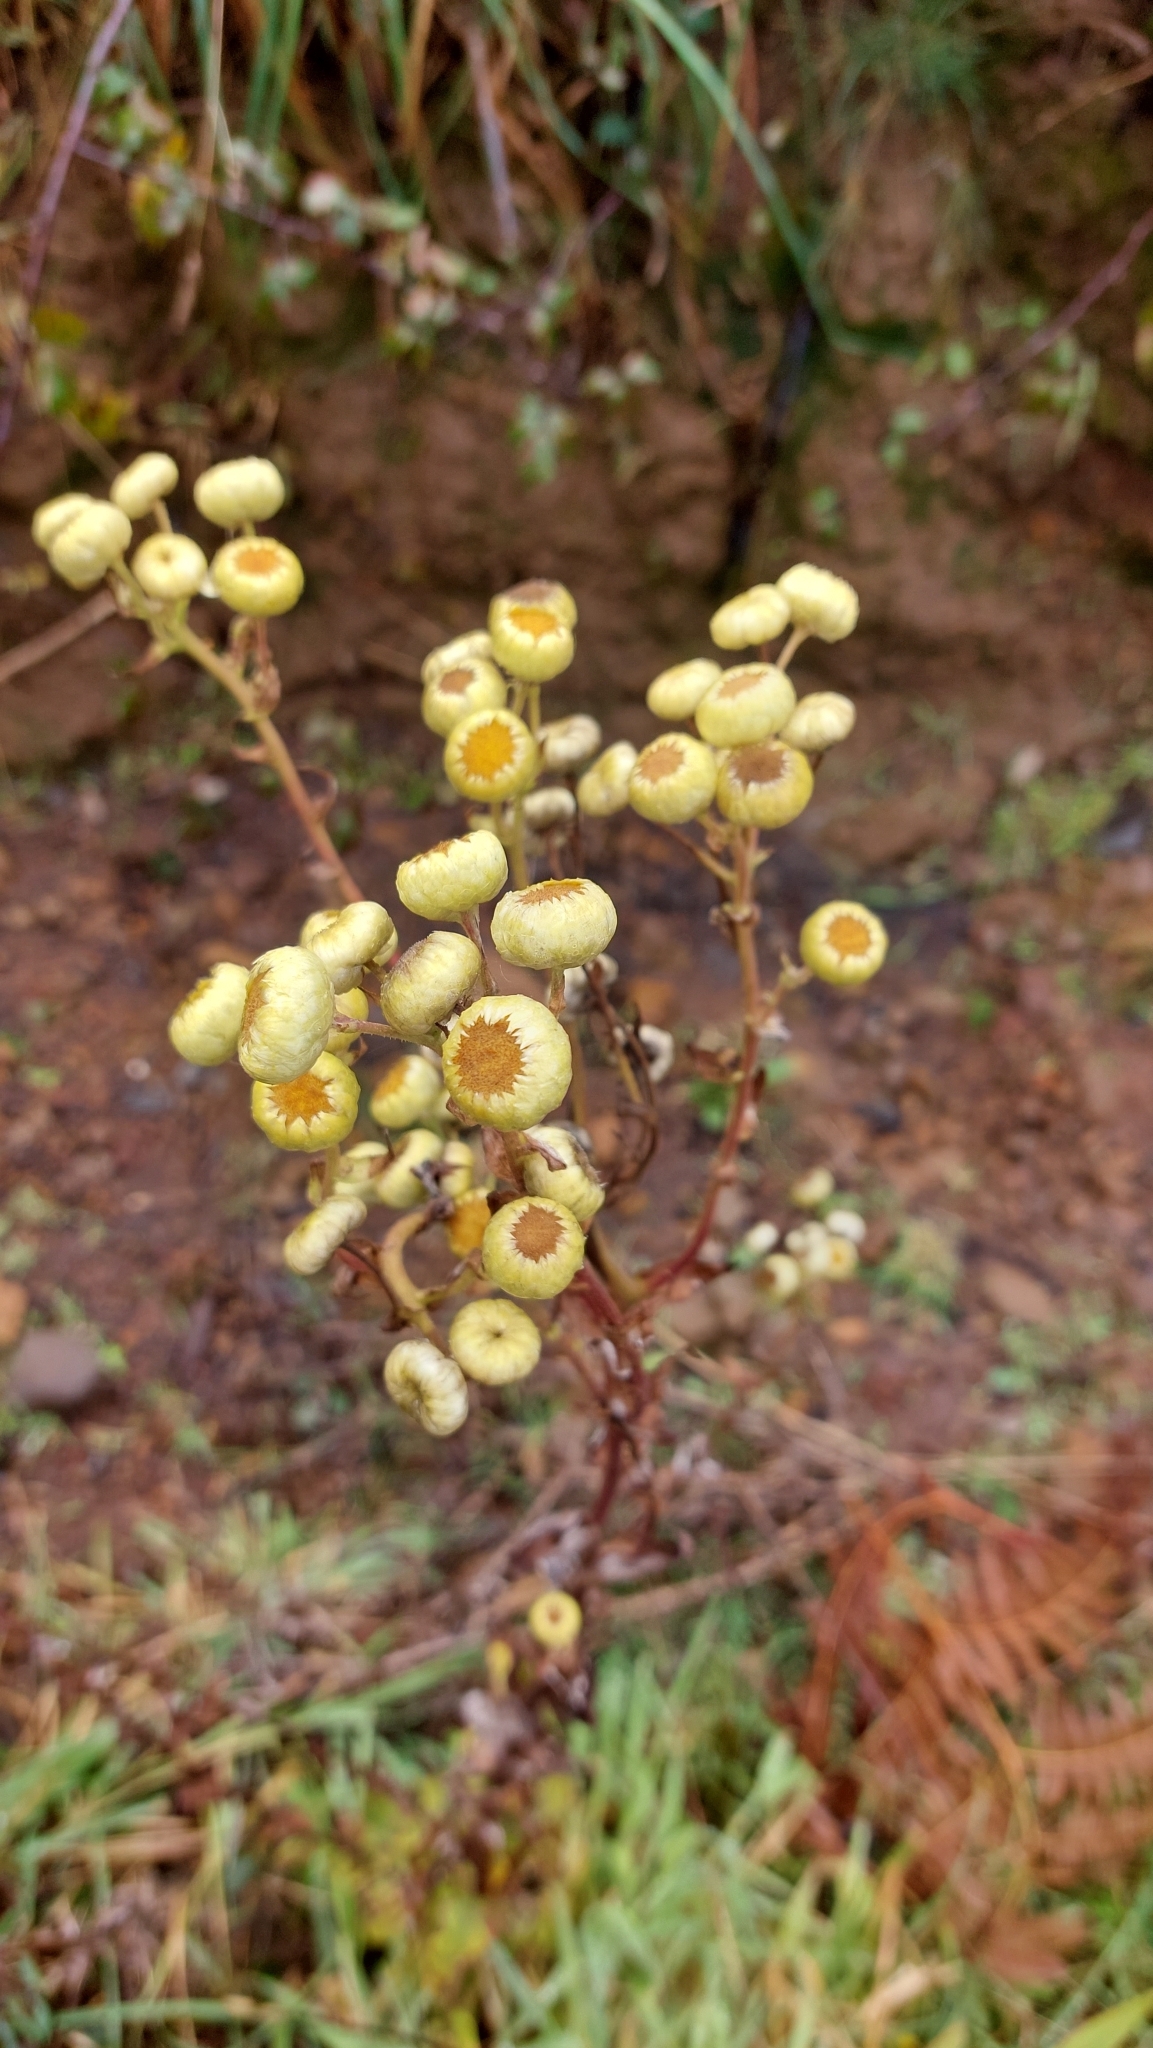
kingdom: Plantae
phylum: Tracheophyta
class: Magnoliopsida
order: Asterales
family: Asteraceae
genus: Helichrysum
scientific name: Helichrysum foetidum
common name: Stinking everlasting
